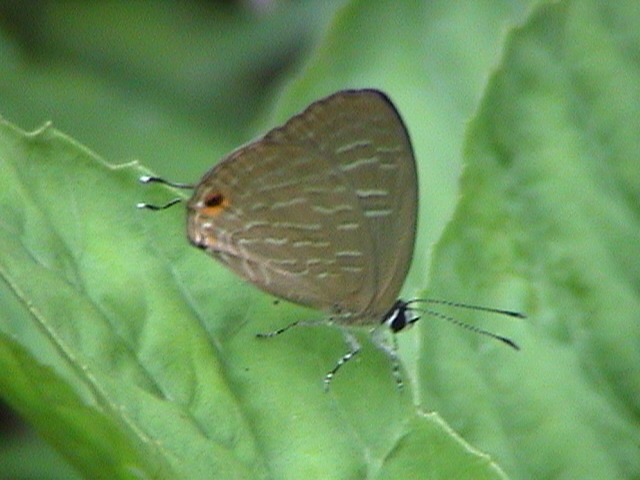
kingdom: Animalia
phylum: Arthropoda
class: Insecta
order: Lepidoptera
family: Lycaenidae
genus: Jamides
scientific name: Jamides alecto
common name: Metallic cerulean
